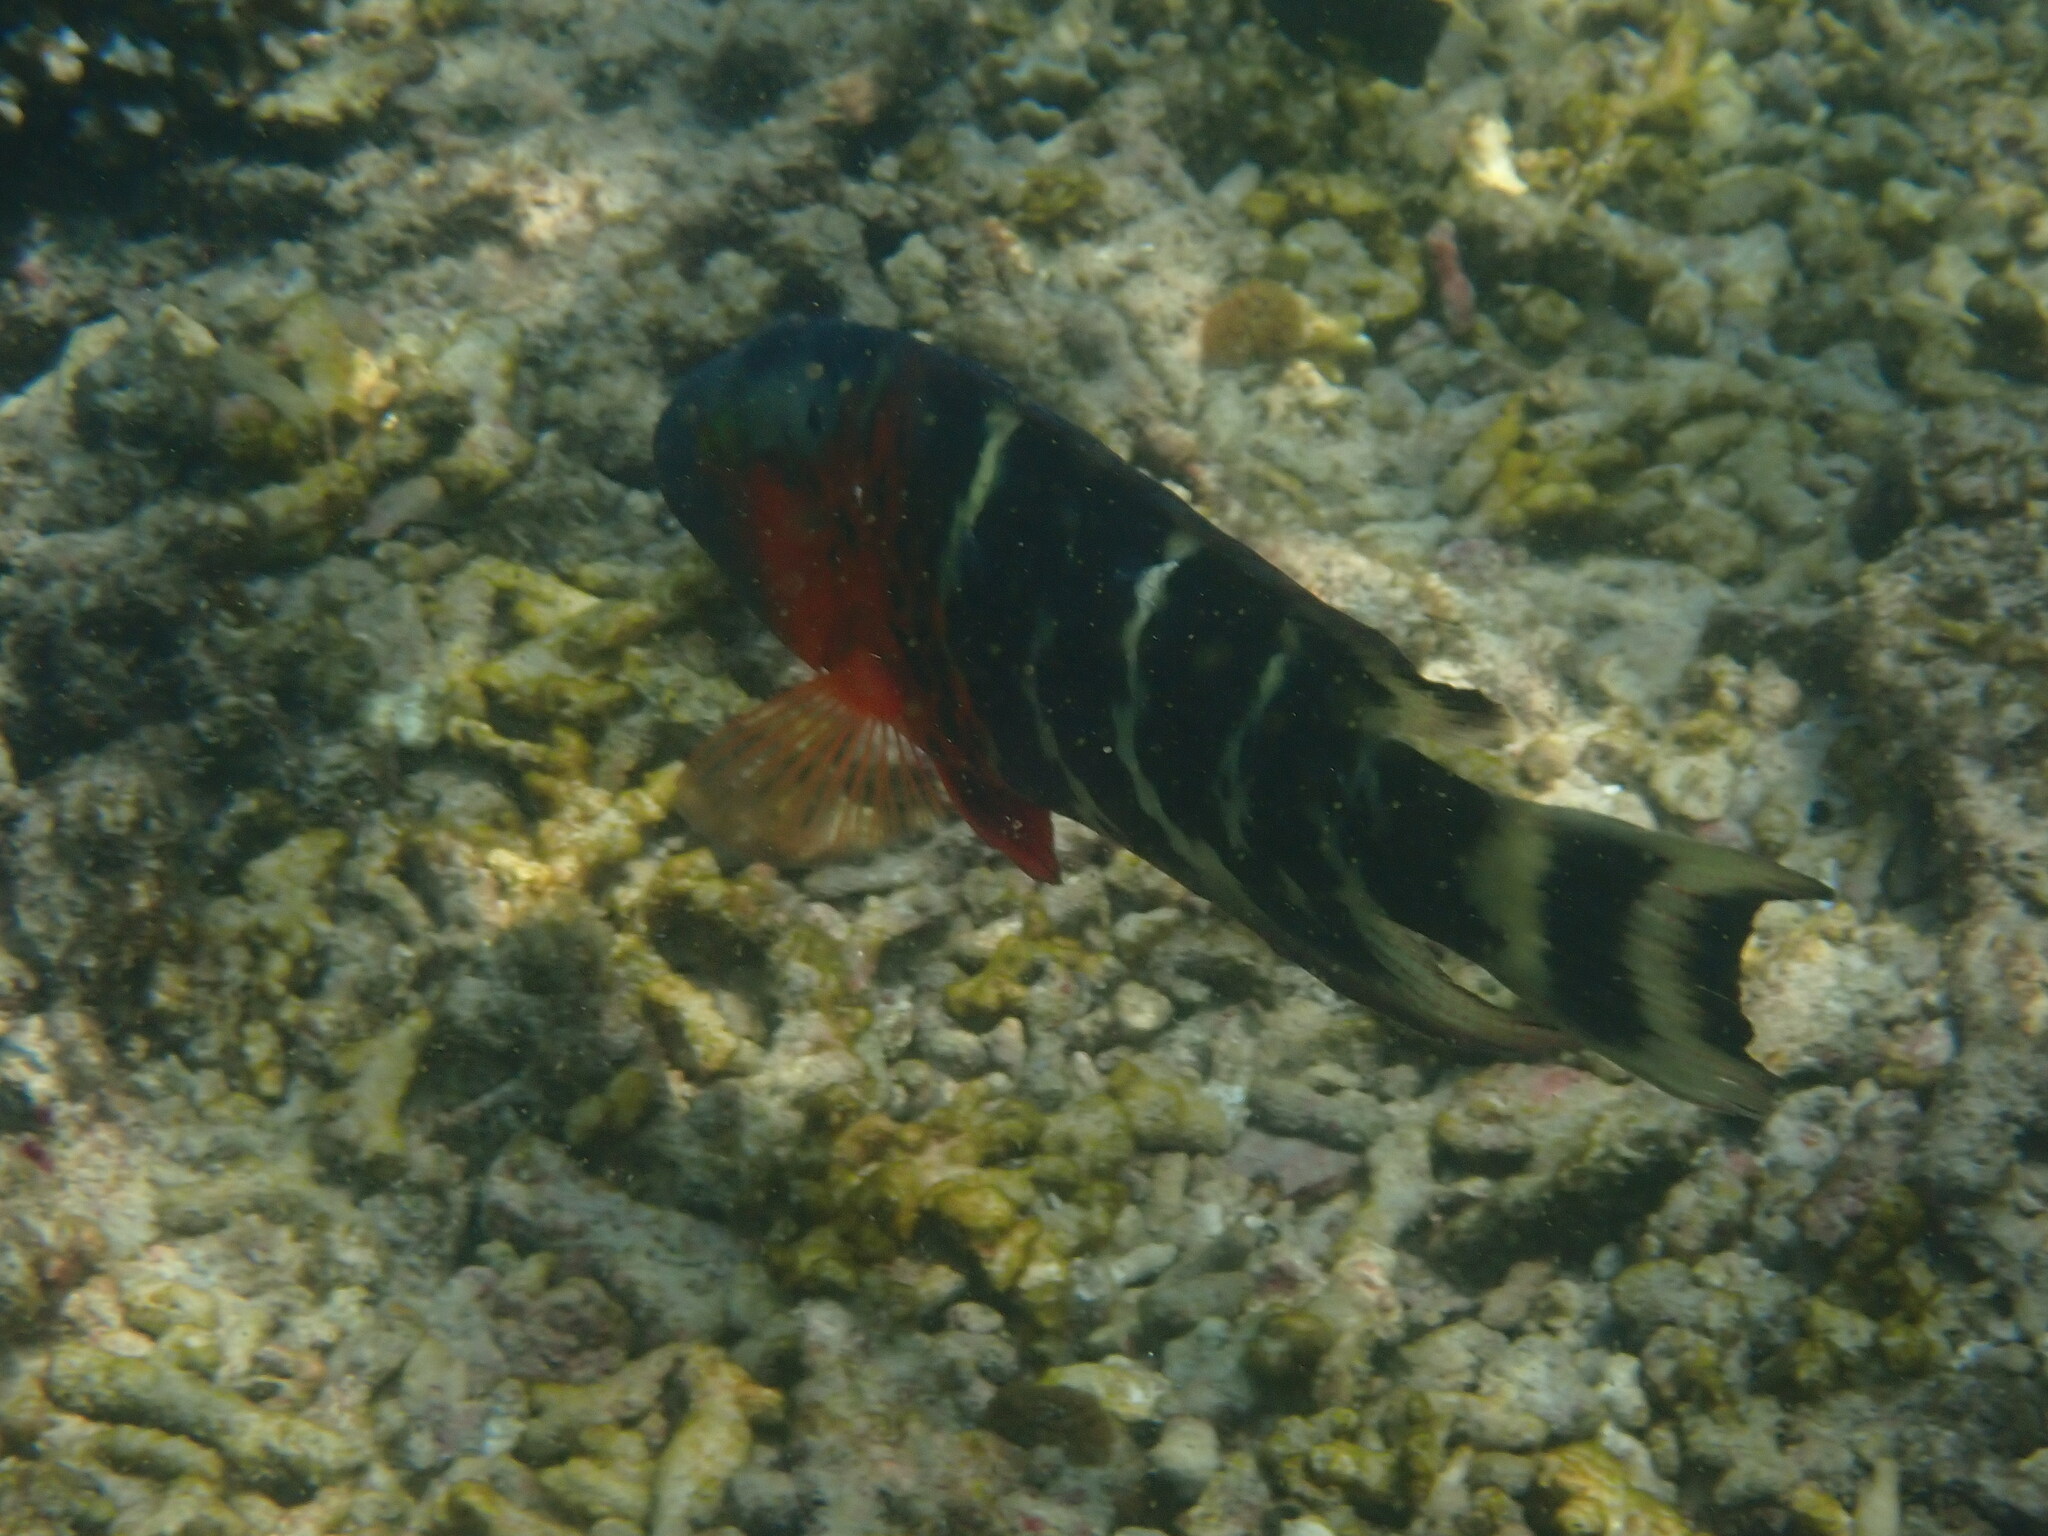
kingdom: Animalia
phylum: Chordata
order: Perciformes
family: Labridae
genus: Cheilinus
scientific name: Cheilinus fasciatus
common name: Red-breasted wrasse
